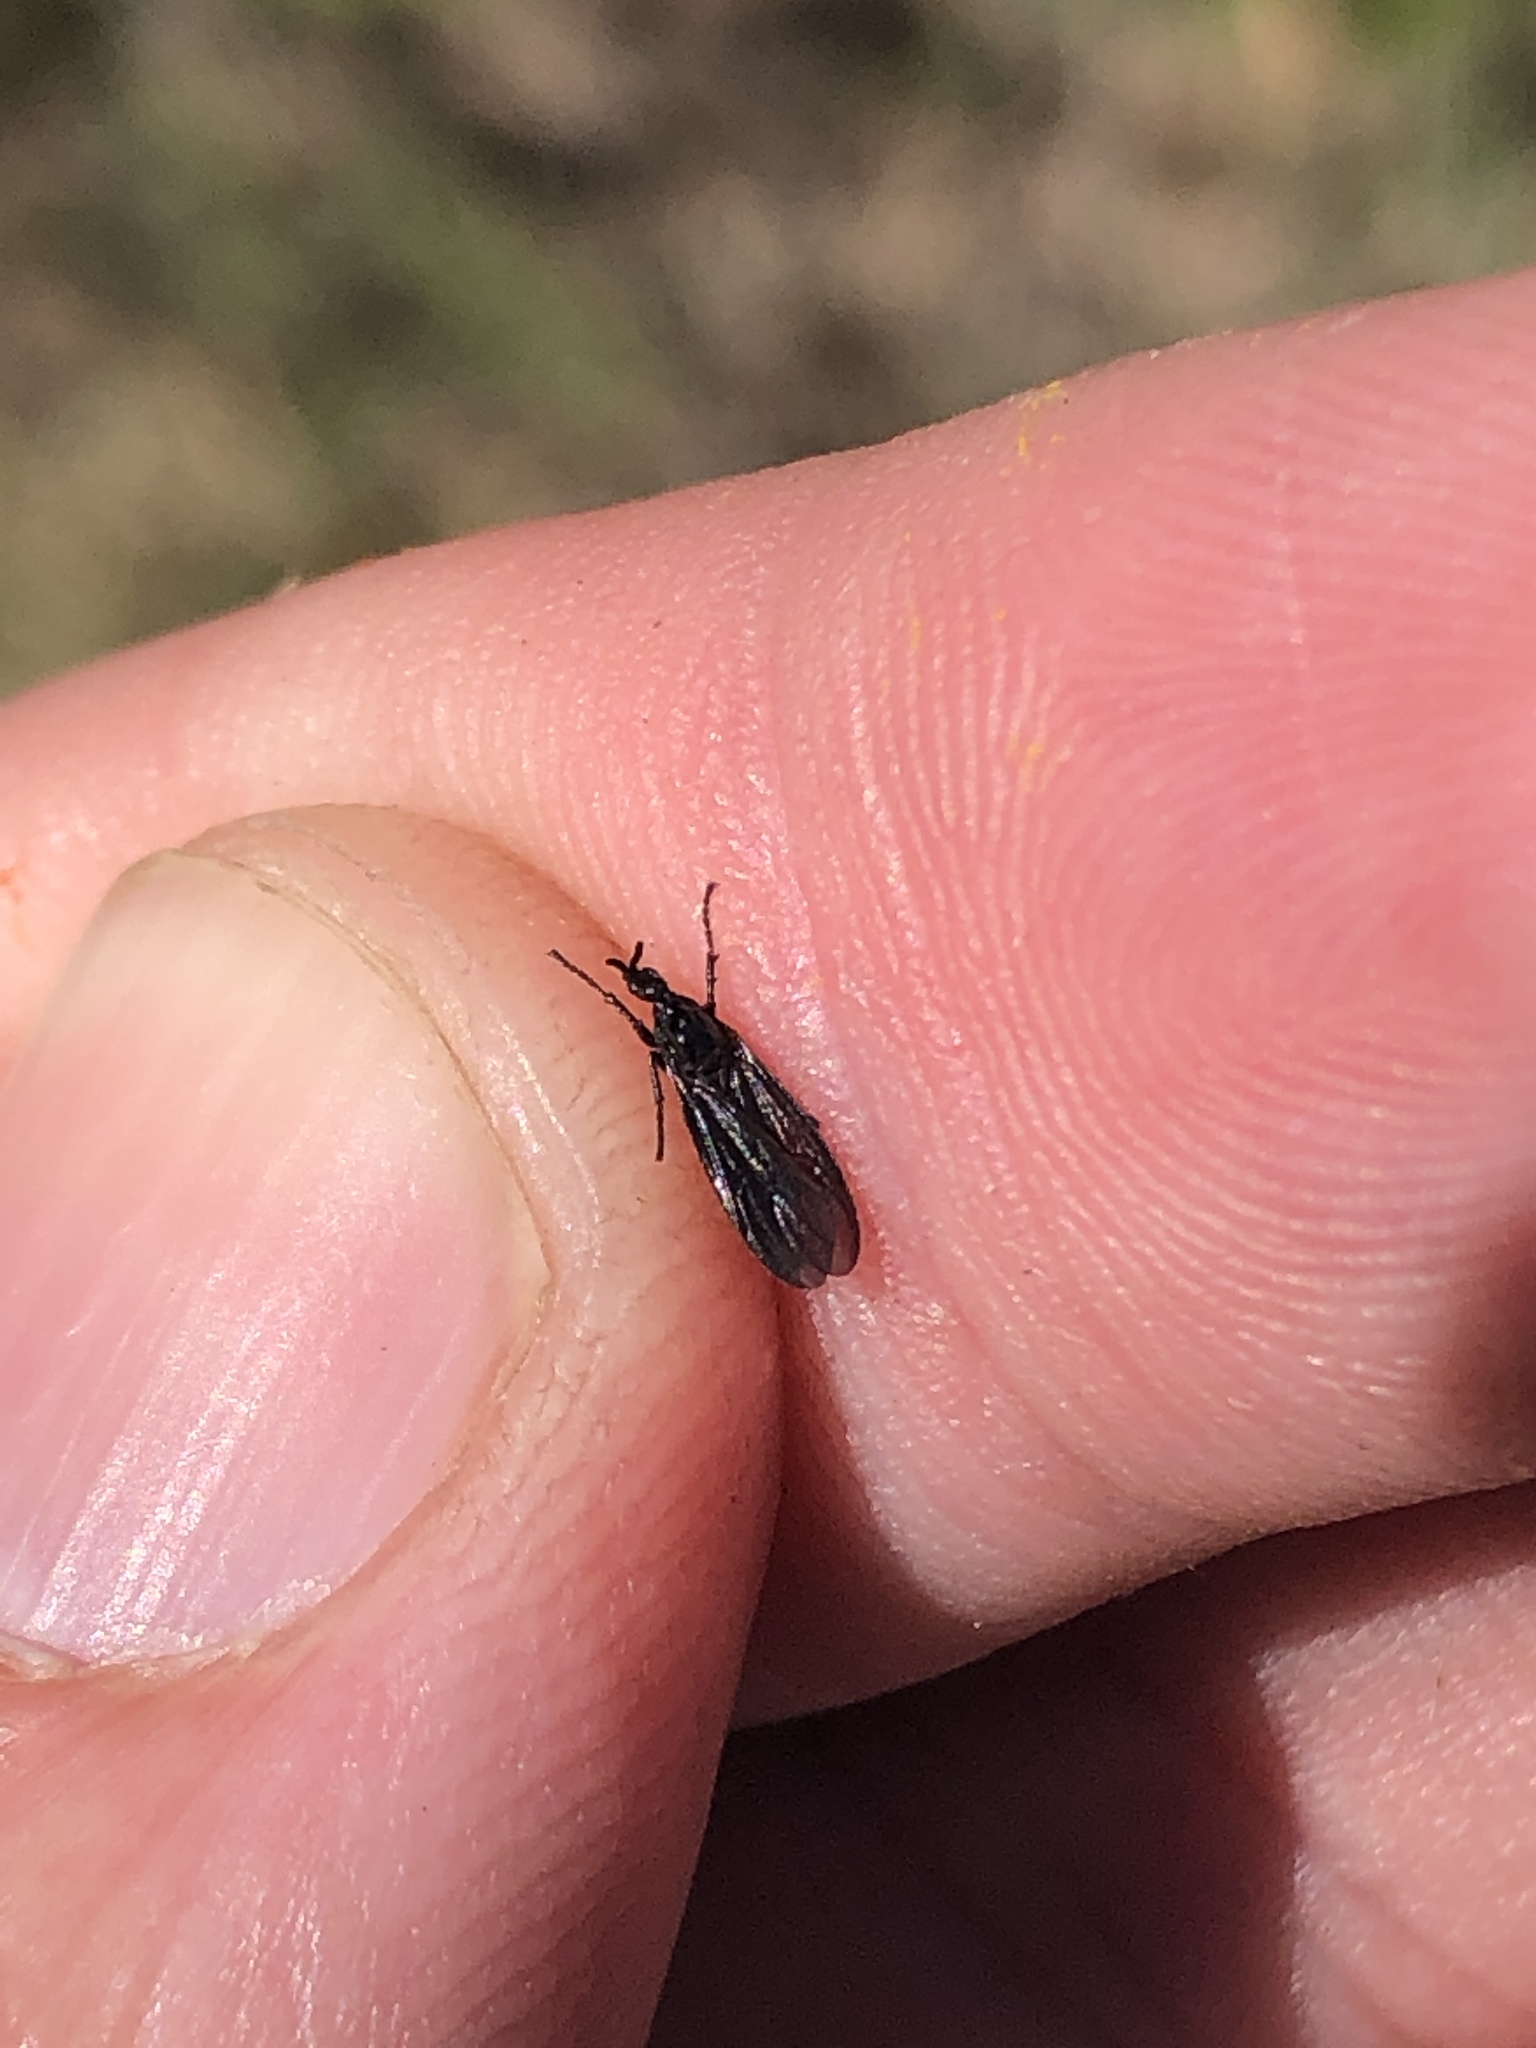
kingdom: Animalia
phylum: Arthropoda
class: Insecta
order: Diptera
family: Bibionidae
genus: Dilophus
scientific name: Dilophus orbatus
